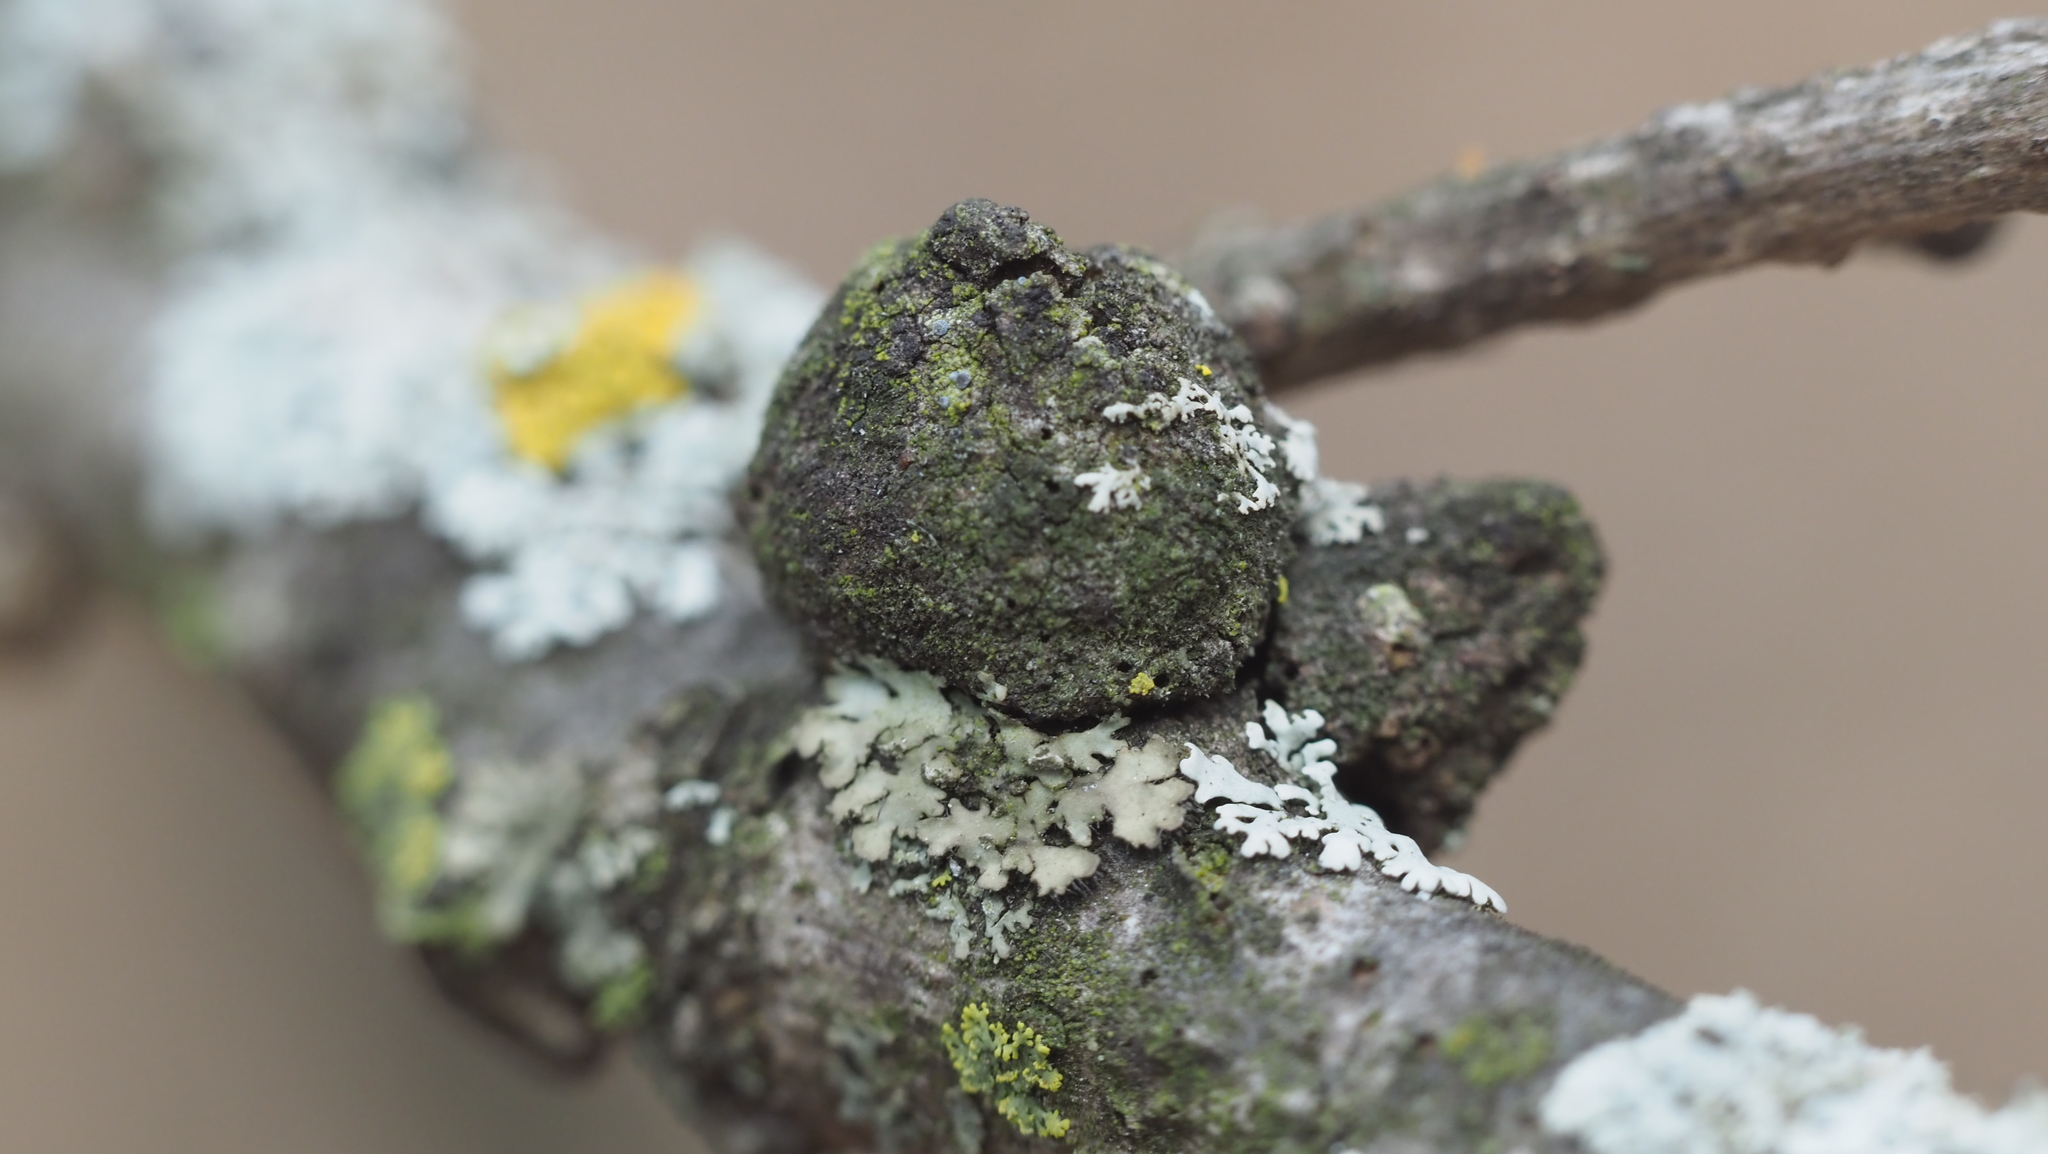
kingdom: Animalia
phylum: Arthropoda
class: Insecta
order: Hymenoptera
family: Cynipidae
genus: Disholcaspis
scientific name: Disholcaspis
